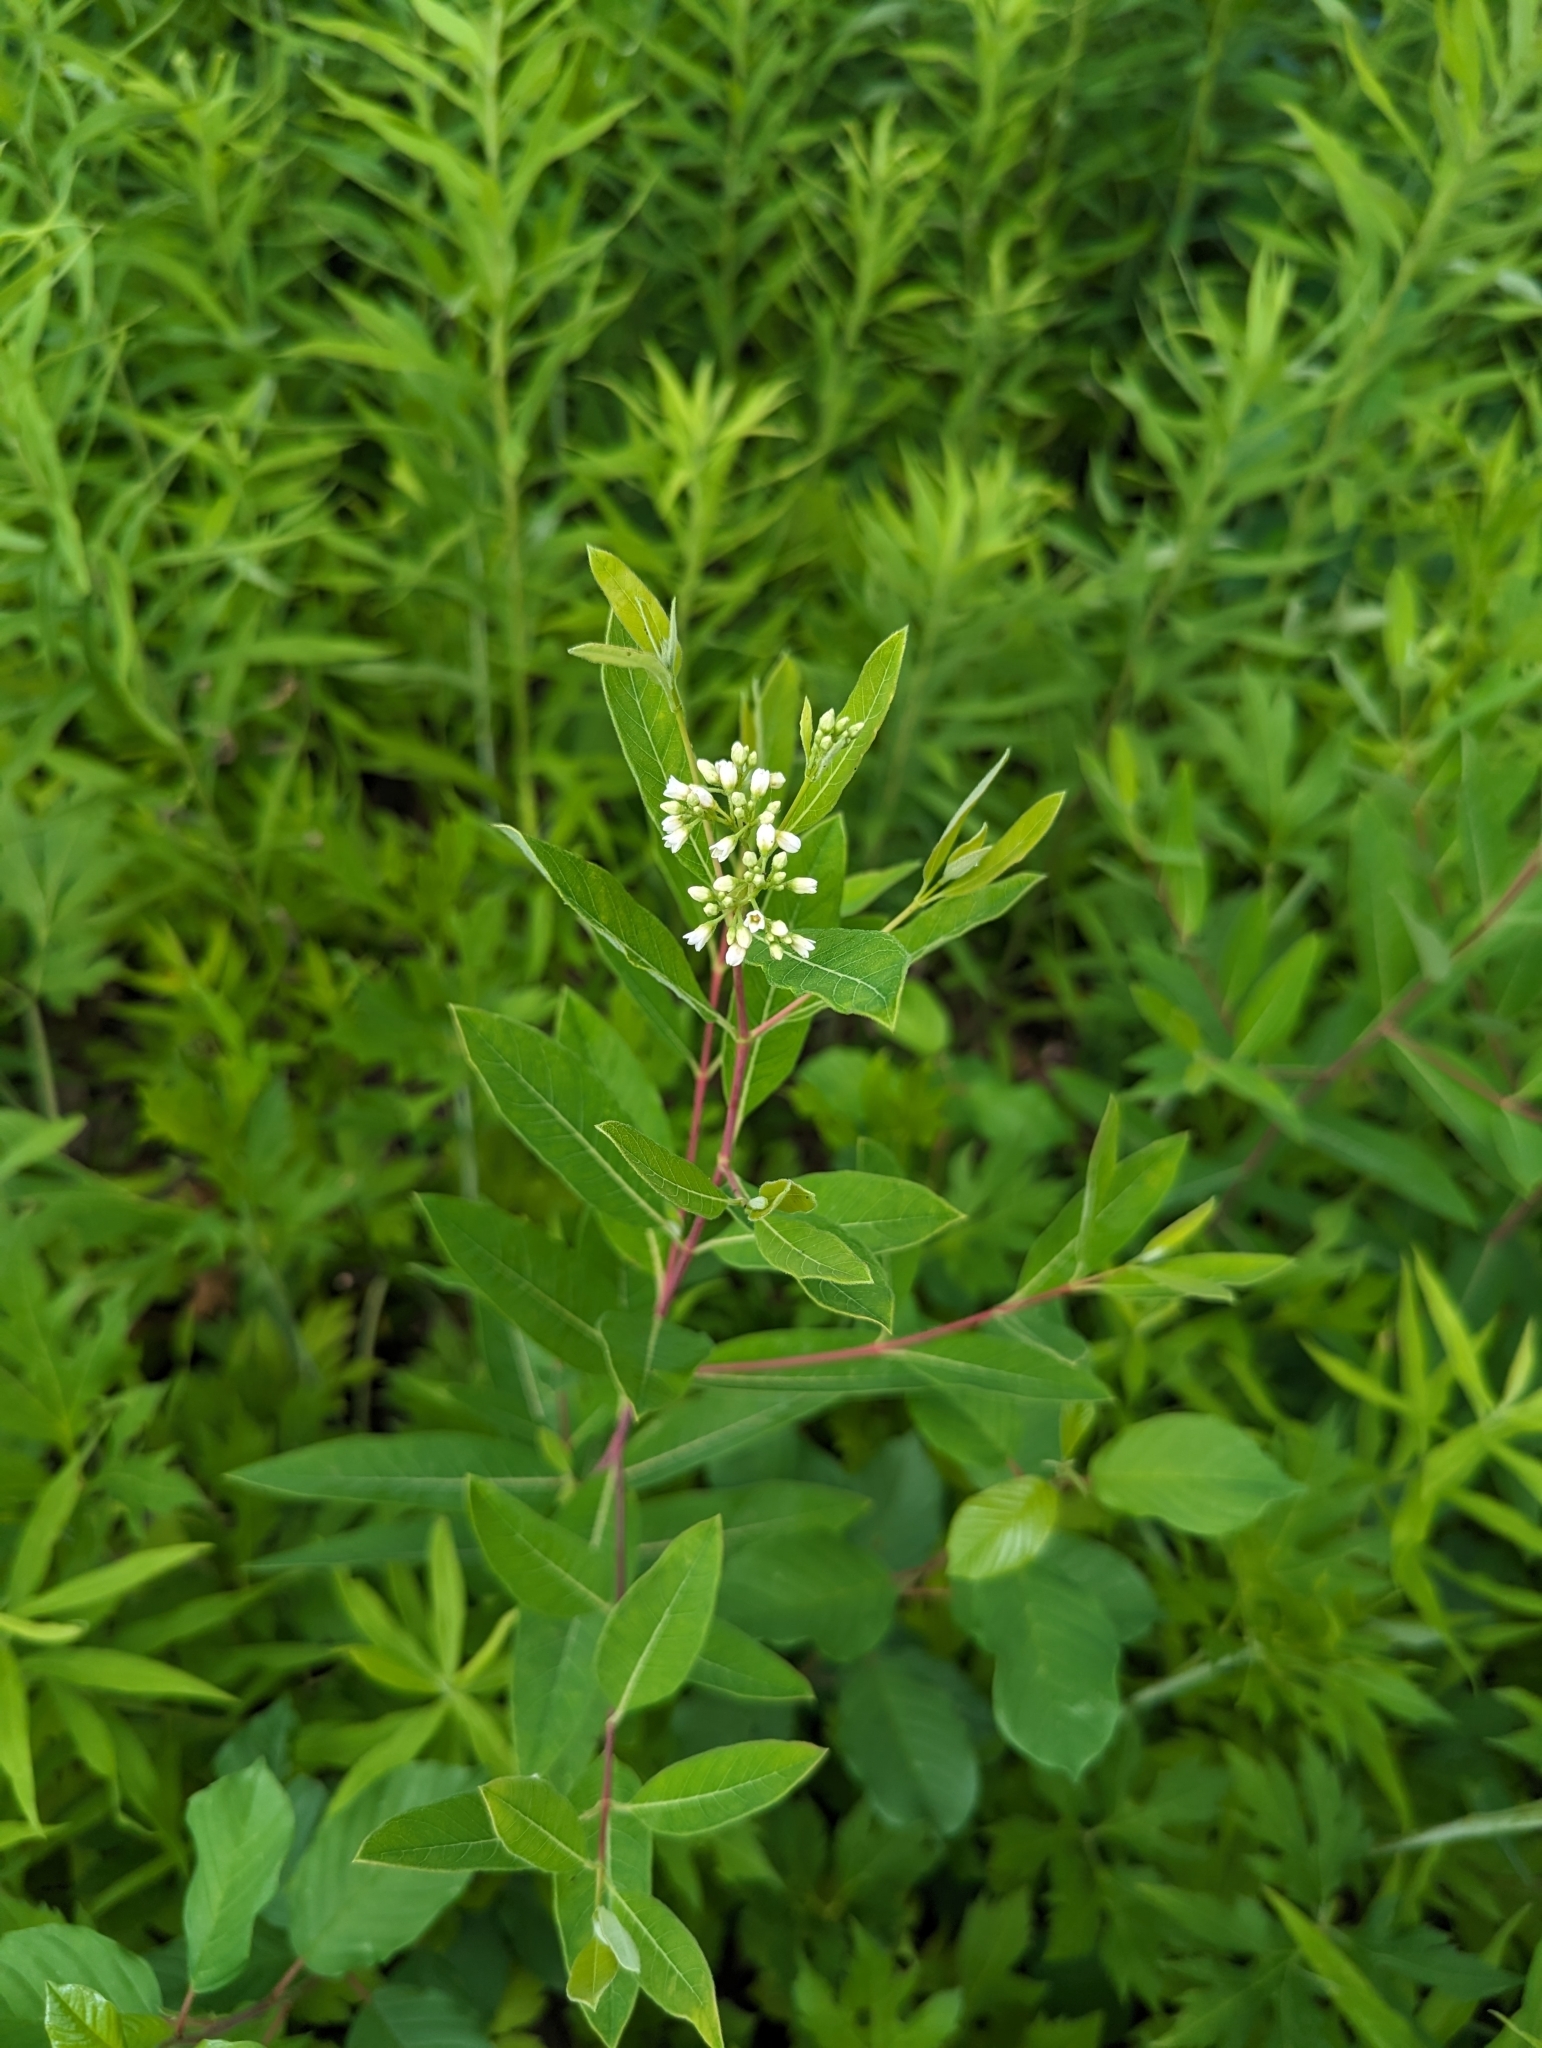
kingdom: Plantae
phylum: Tracheophyta
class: Magnoliopsida
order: Gentianales
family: Apocynaceae
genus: Apocynum
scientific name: Apocynum cannabinum
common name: Hemp dogbane
